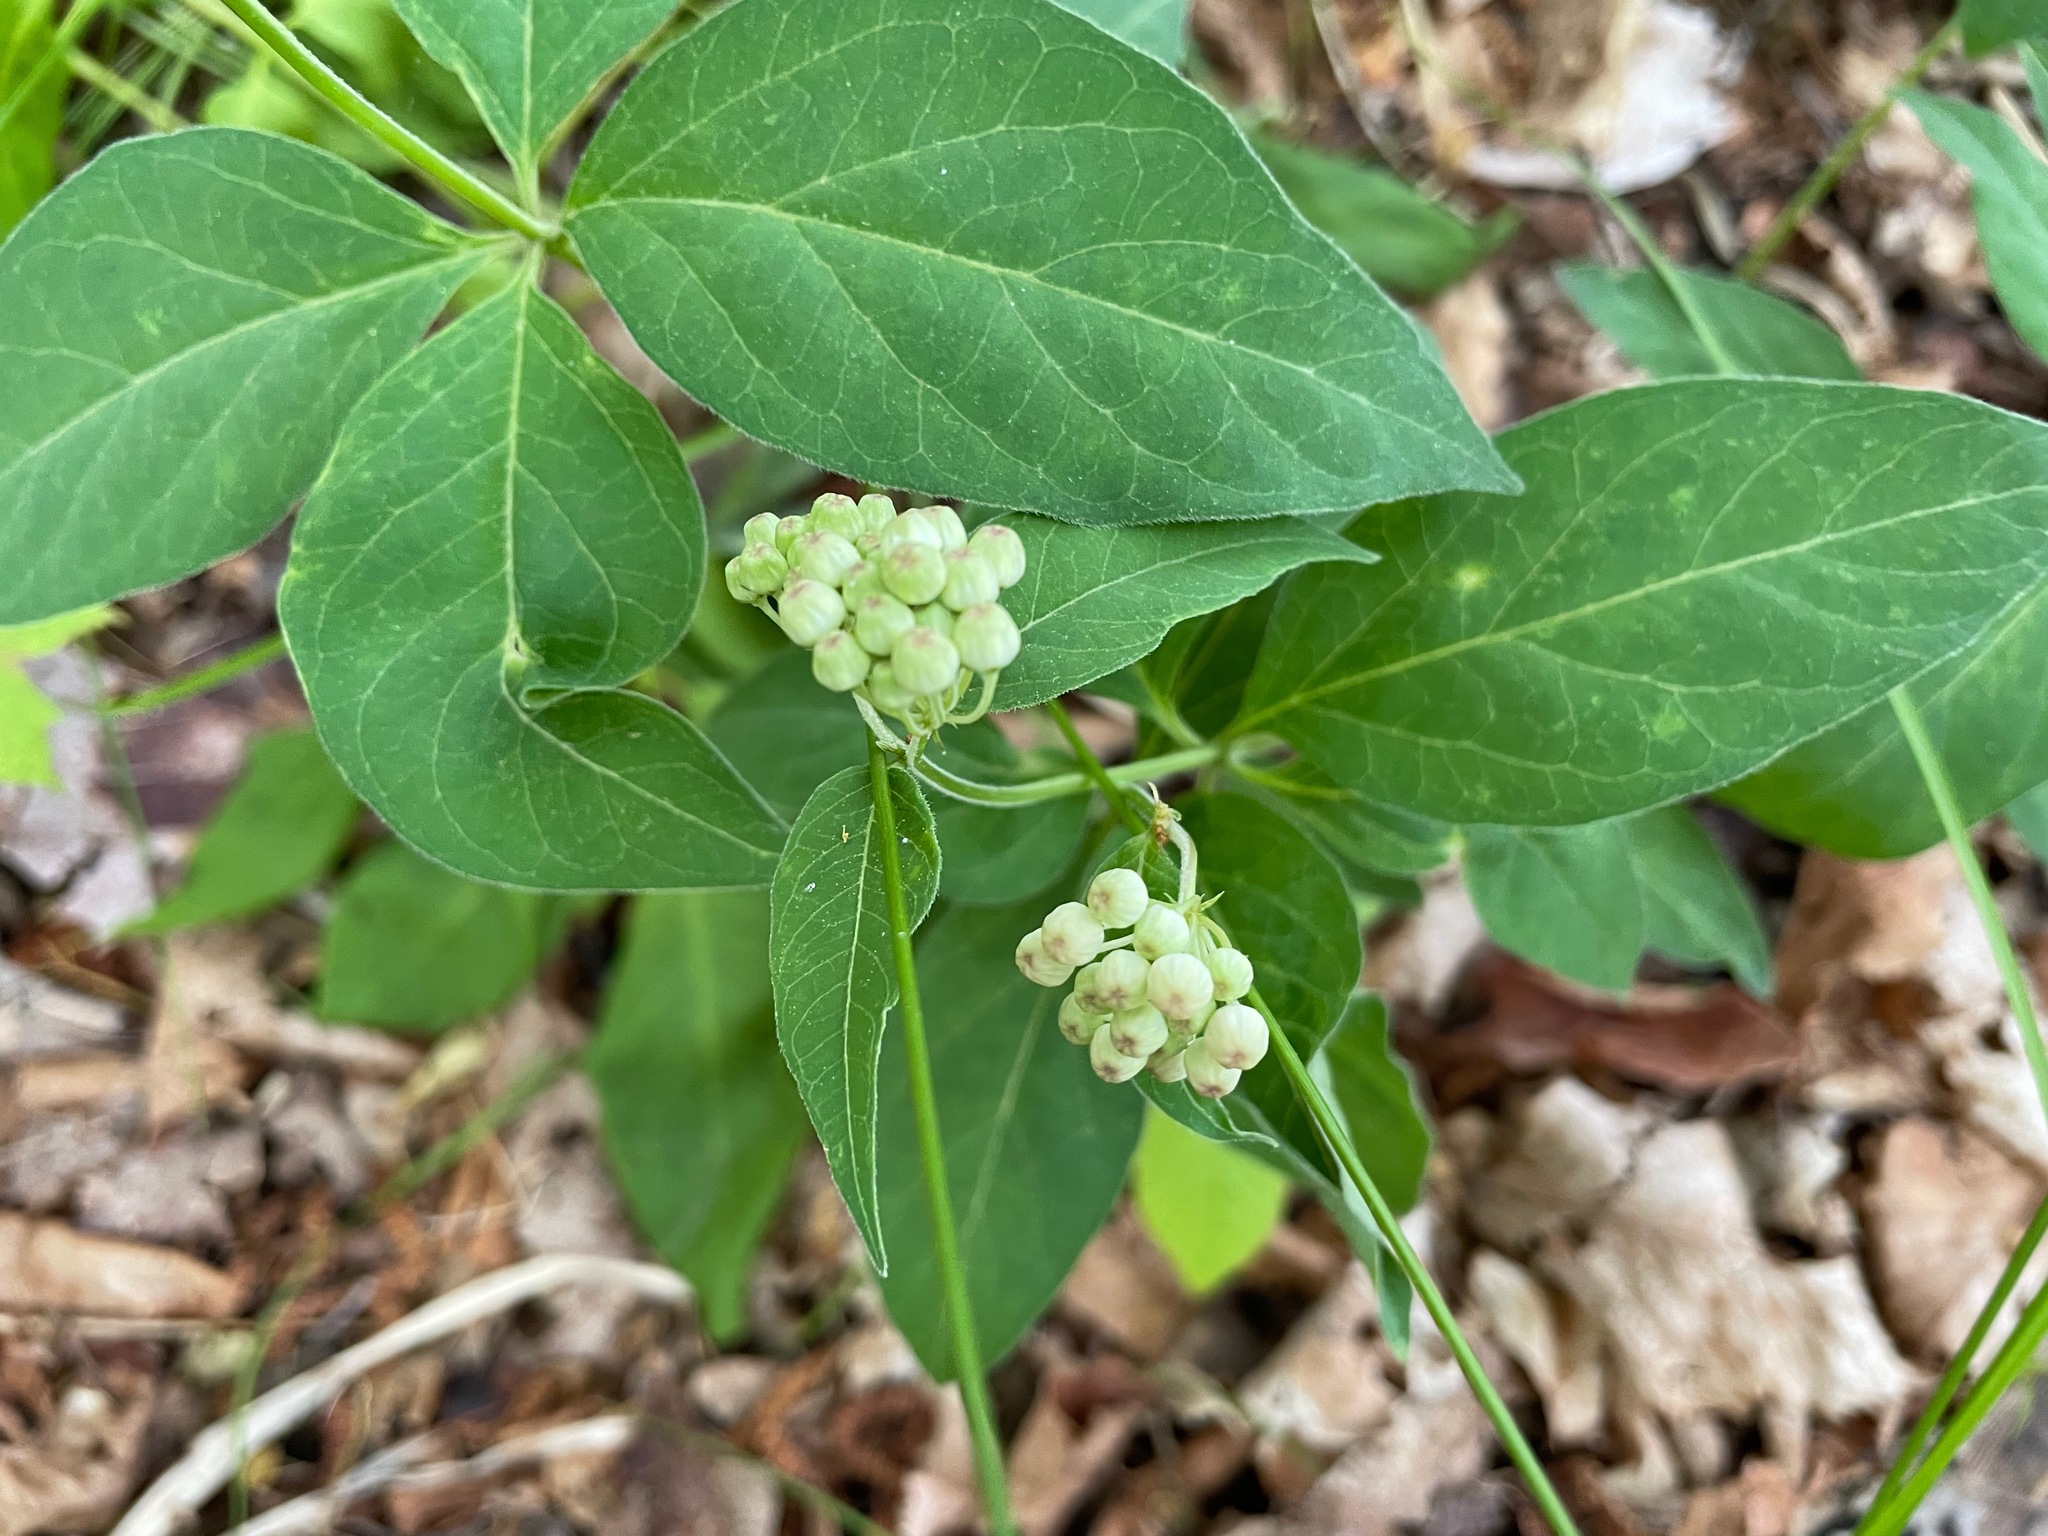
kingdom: Plantae
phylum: Tracheophyta
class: Magnoliopsida
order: Gentianales
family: Apocynaceae
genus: Asclepias
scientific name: Asclepias quadrifolia
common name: Whorled milkweed
